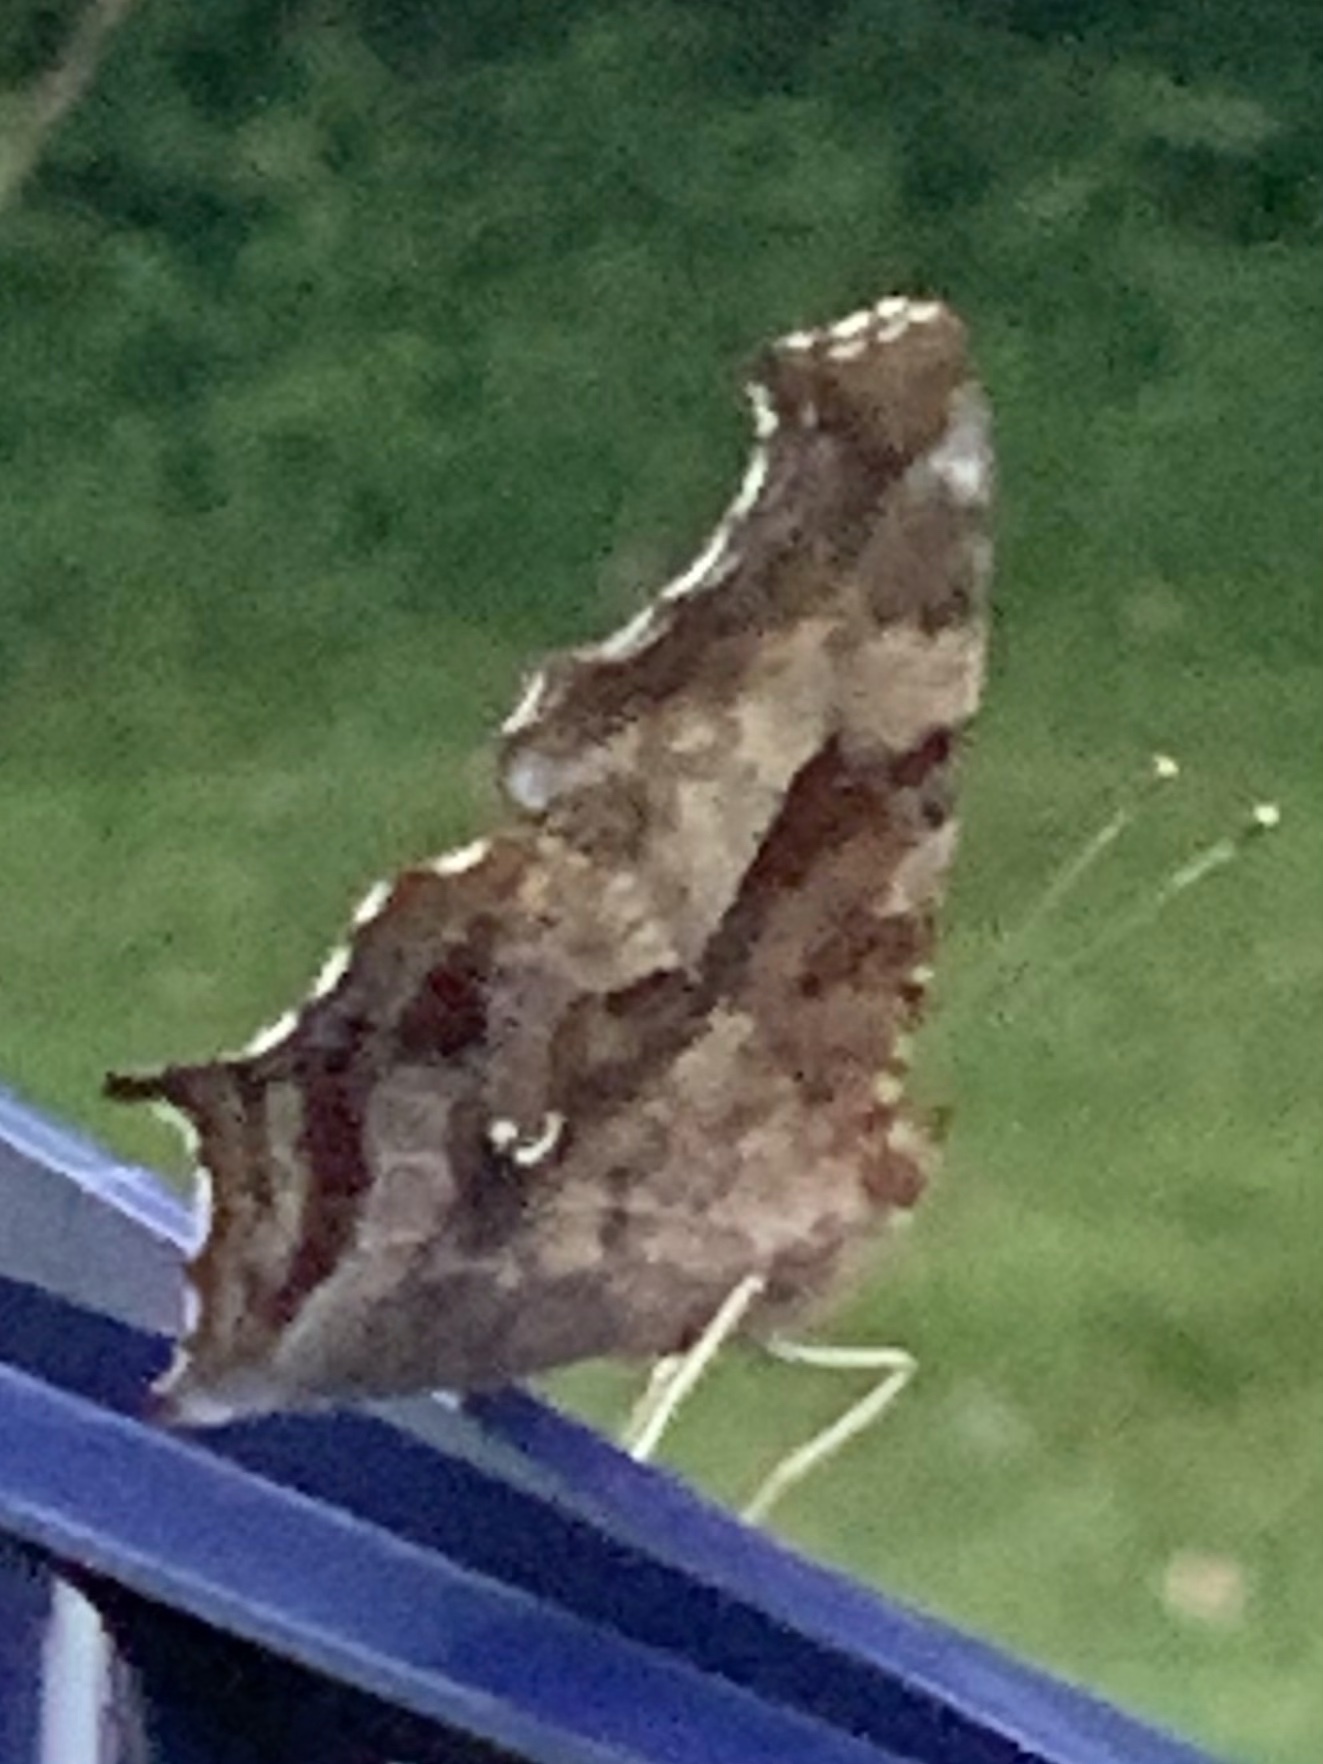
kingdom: Animalia
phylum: Arthropoda
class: Insecta
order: Lepidoptera
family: Nymphalidae
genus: Polygonia
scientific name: Polygonia interrogationis
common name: Question mark
